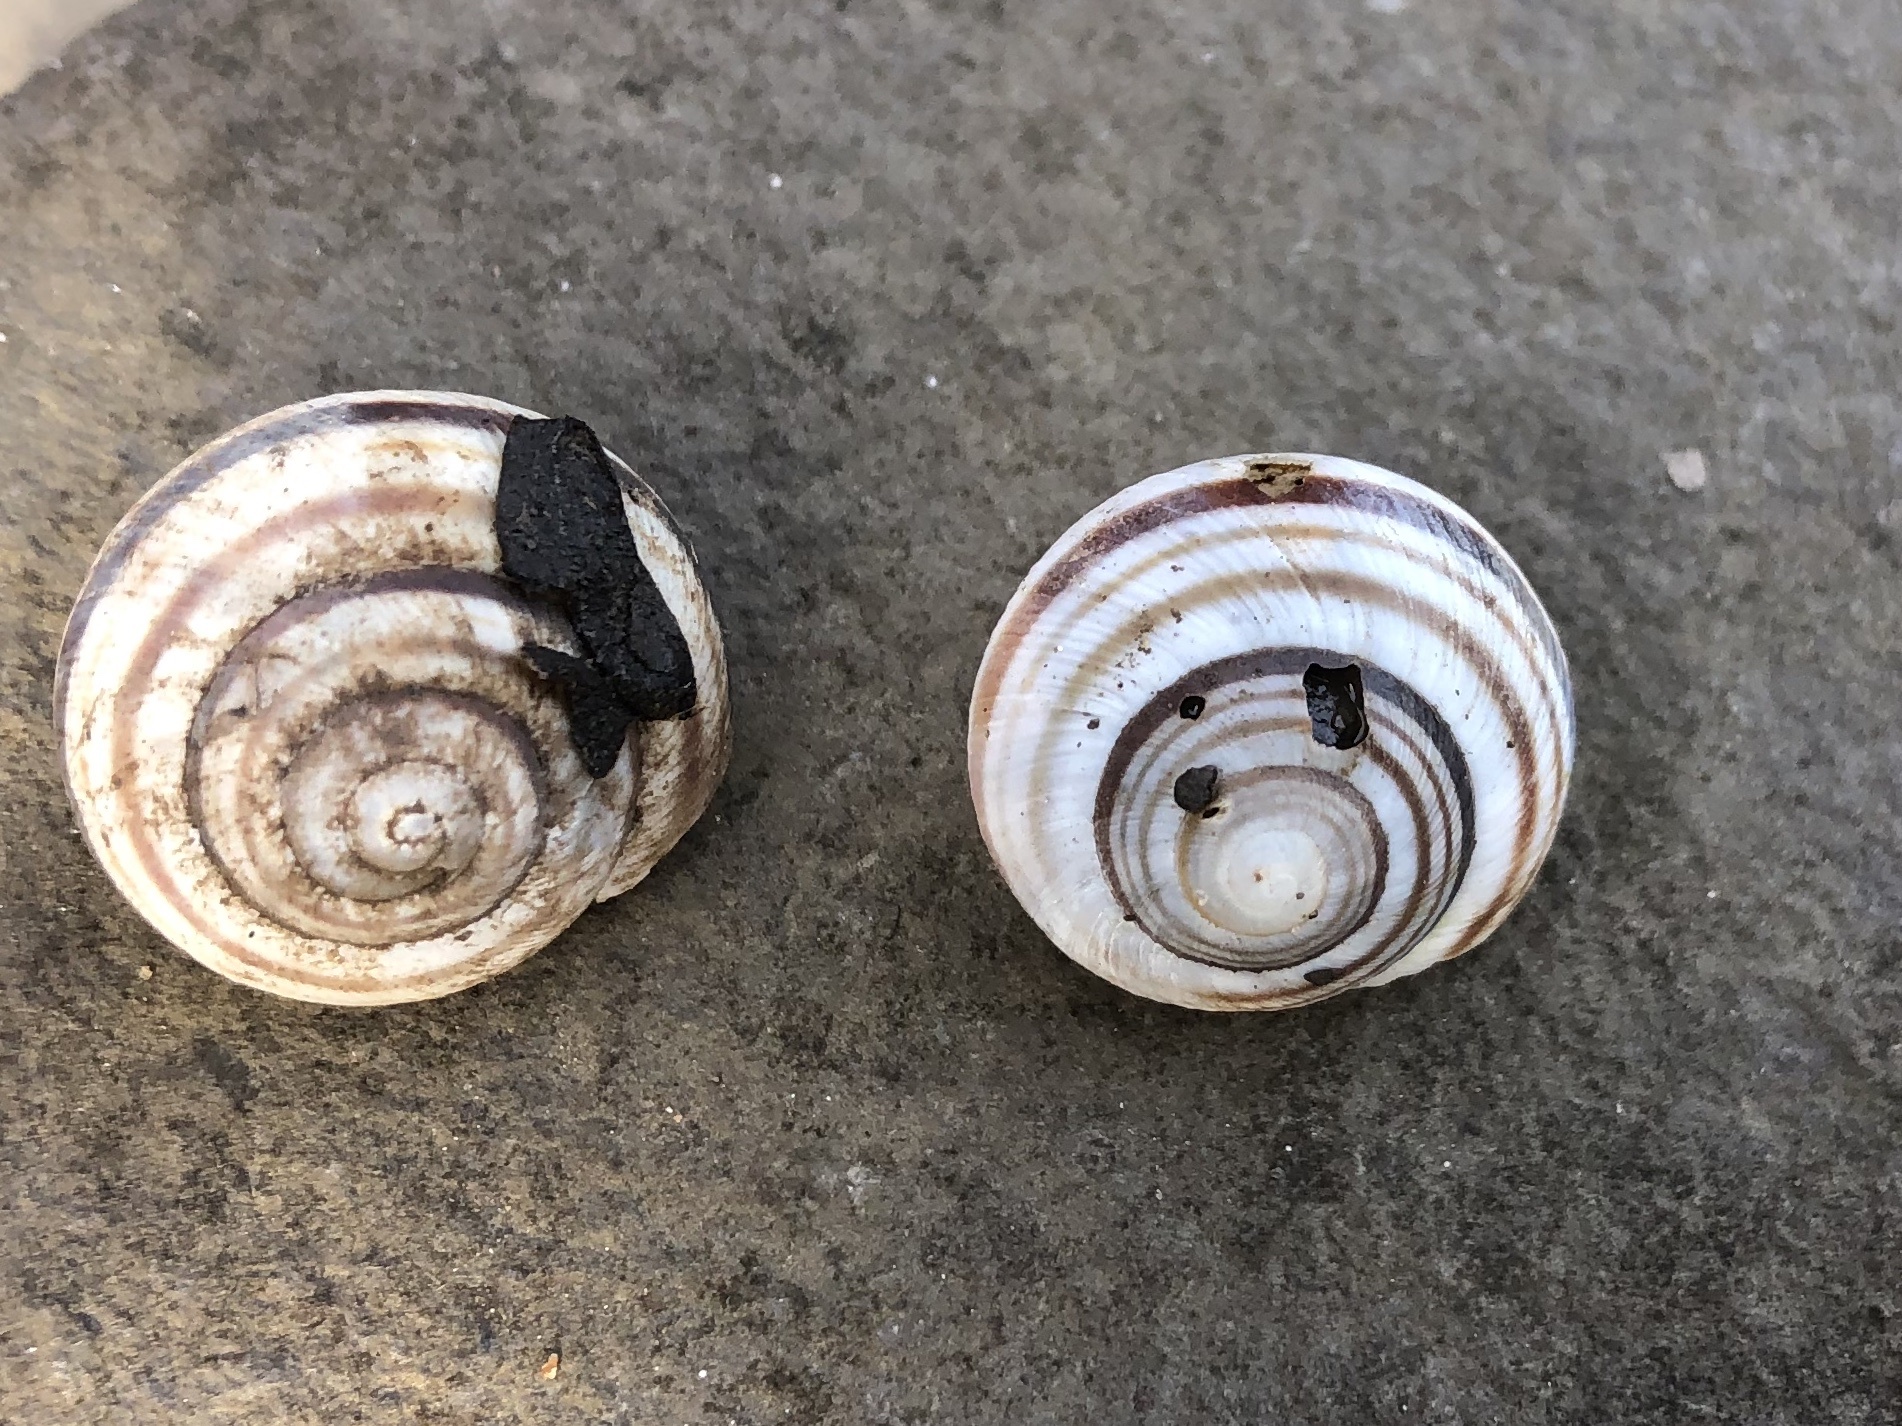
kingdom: Animalia
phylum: Mollusca
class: Gastropoda
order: Stylommatophora
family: Helicidae
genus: Caucasotachea
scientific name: Caucasotachea vindobonensis
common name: European helicid land snail
